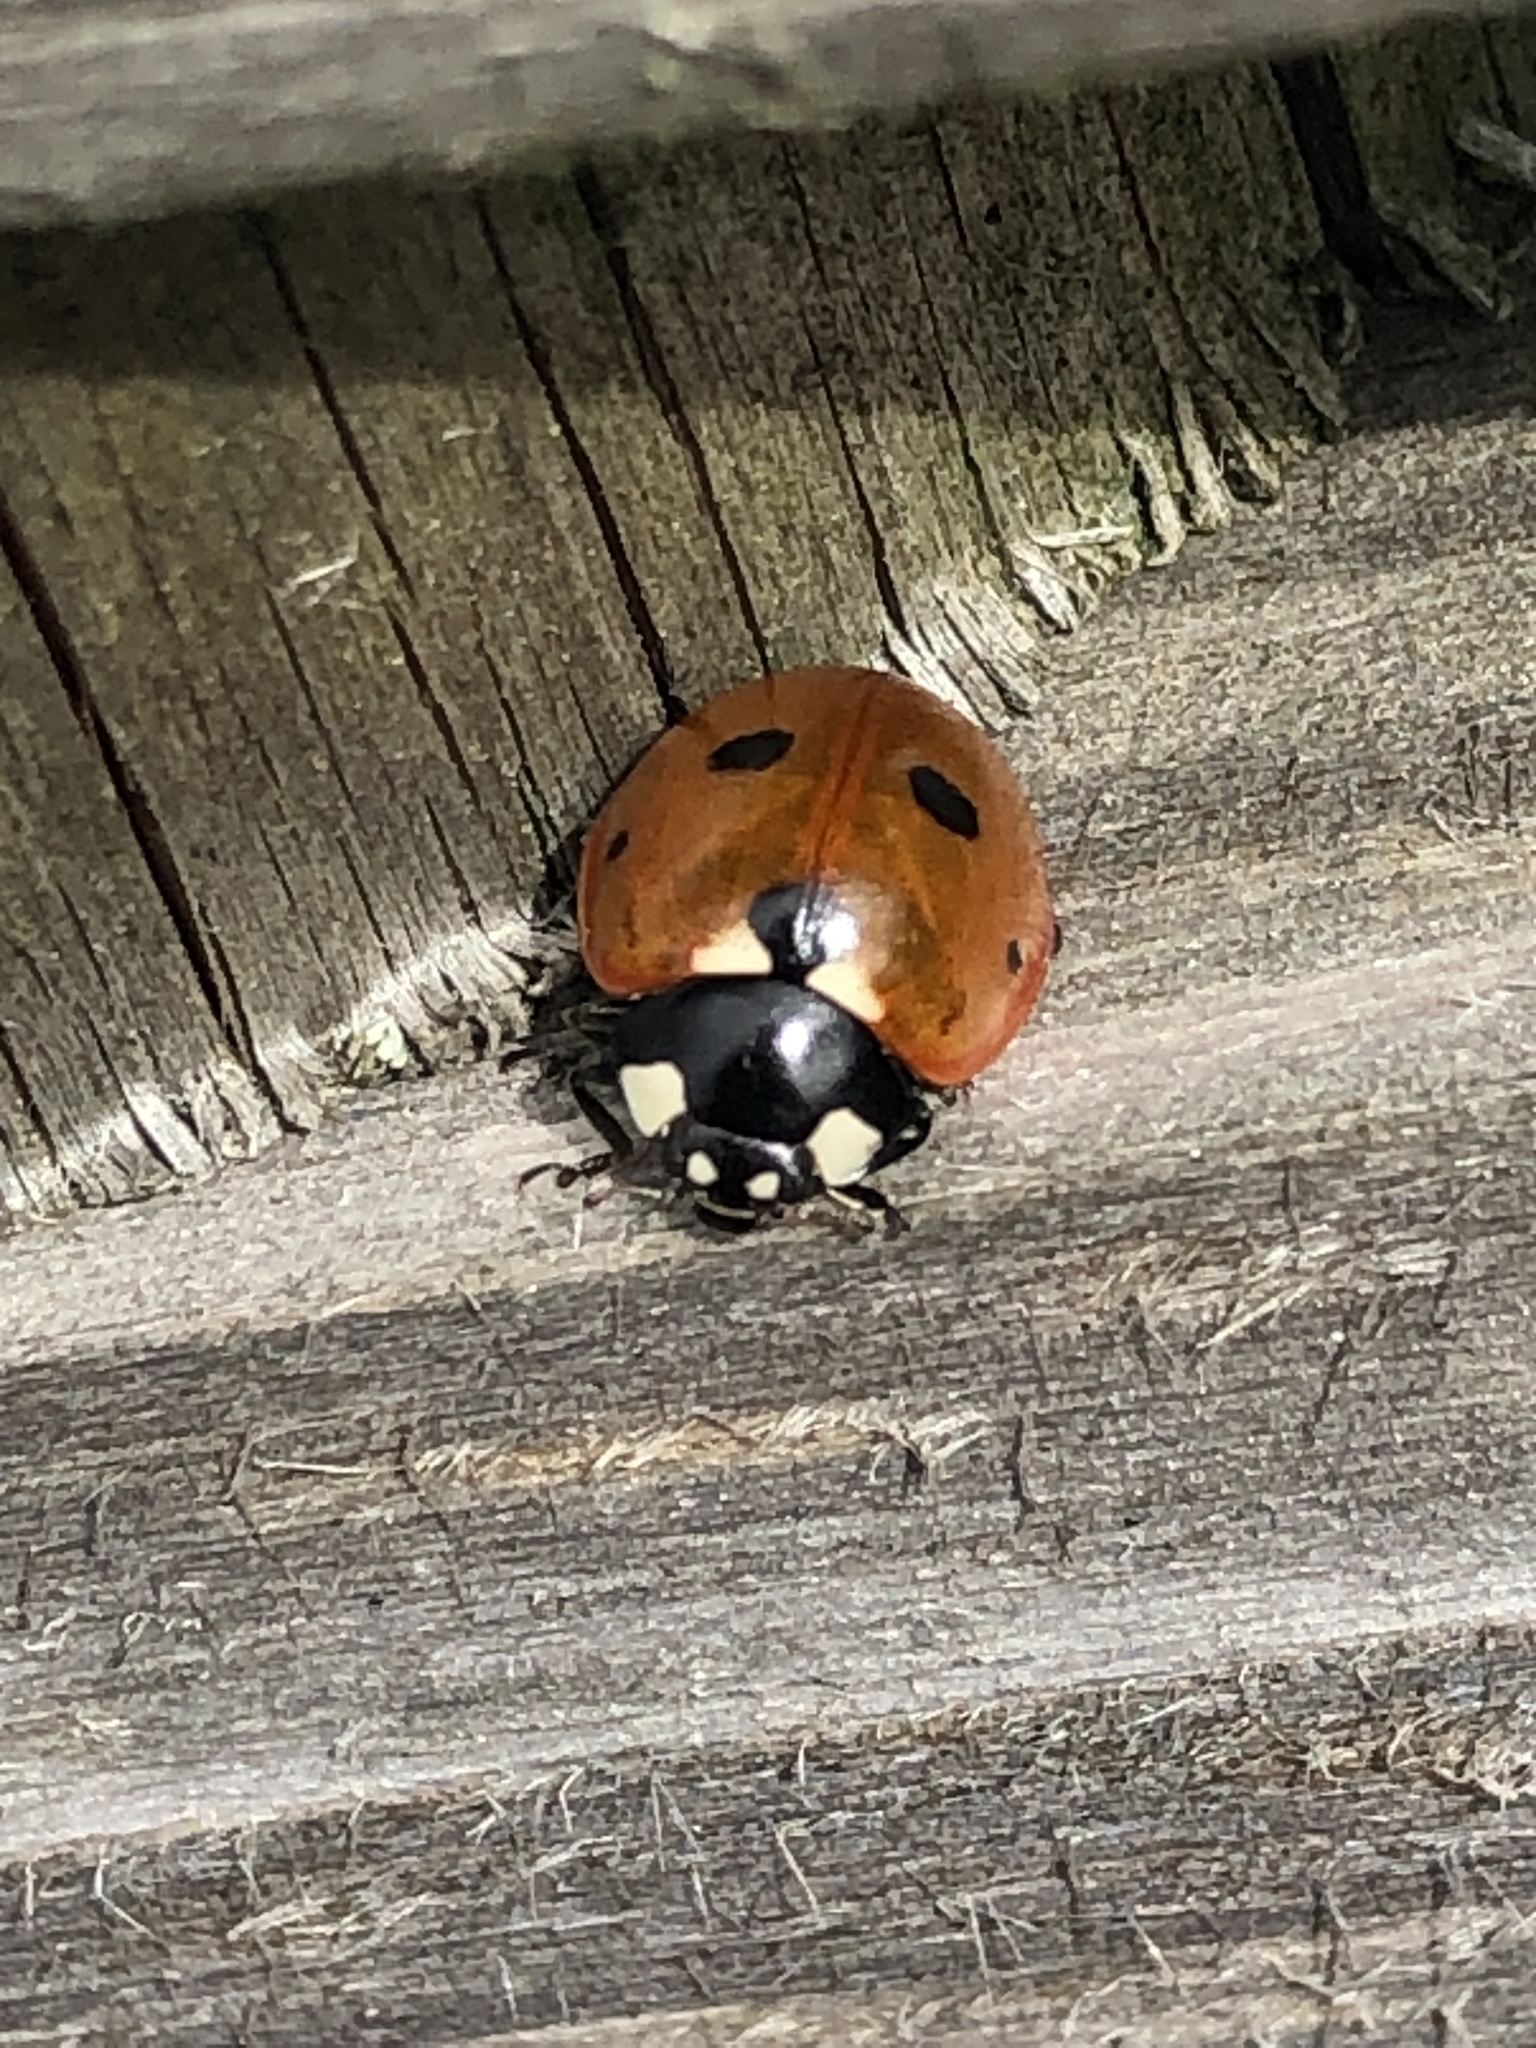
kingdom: Animalia
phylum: Arthropoda
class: Insecta
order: Coleoptera
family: Coccinellidae
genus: Coccinella
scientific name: Coccinella septempunctata
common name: Sevenspotted lady beetle
